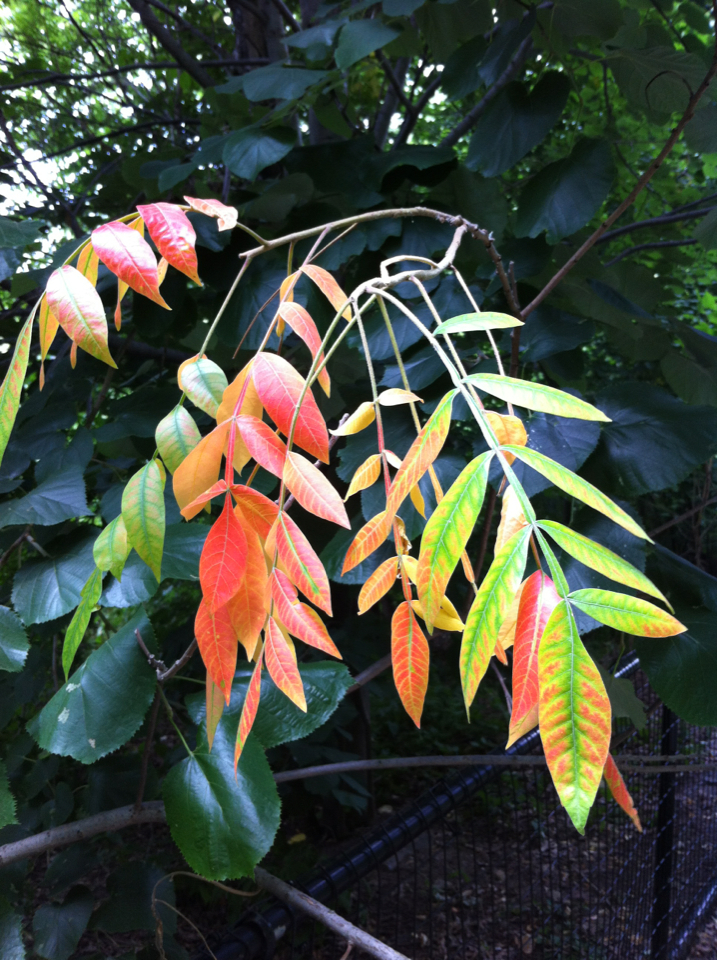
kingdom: Plantae
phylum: Tracheophyta
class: Magnoliopsida
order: Sapindales
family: Anacardiaceae
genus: Rhus
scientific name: Rhus copallina
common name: Shining sumac
